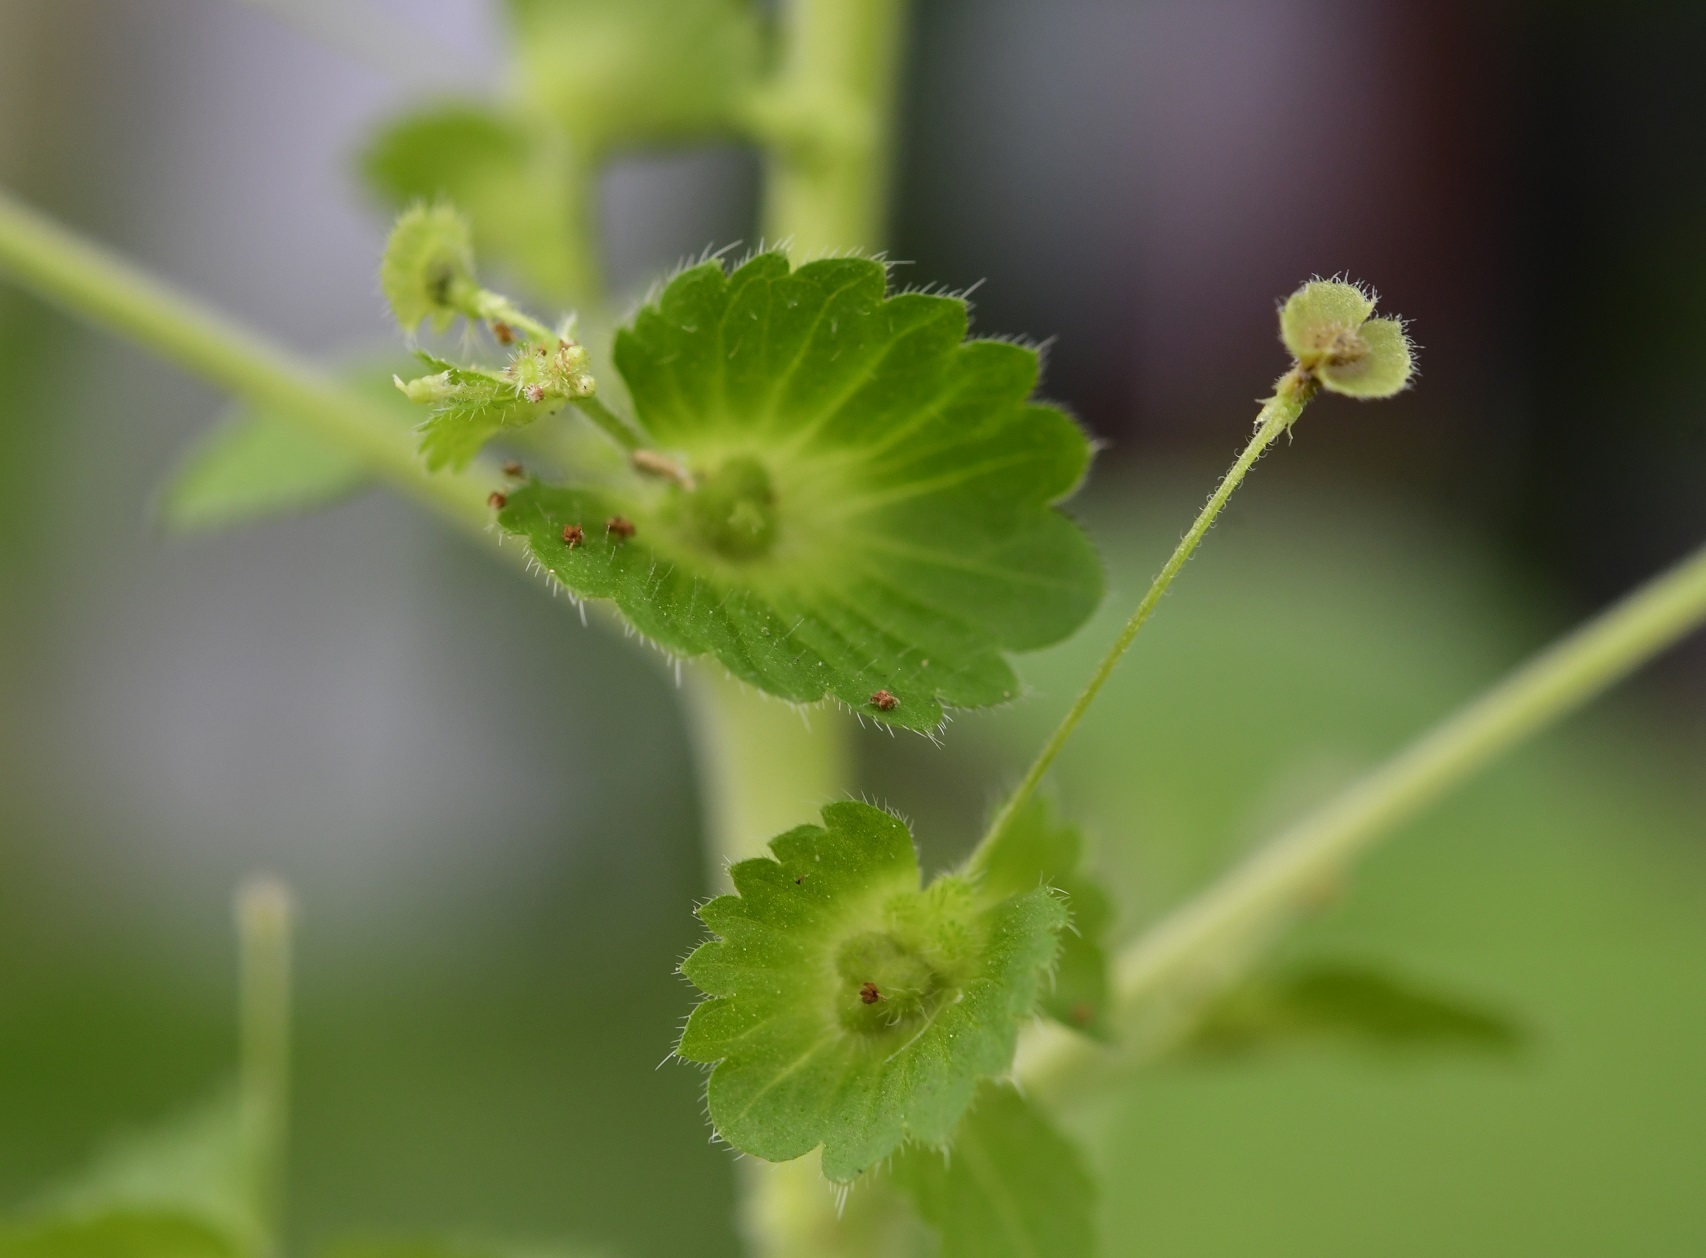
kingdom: Plantae
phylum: Tracheophyta
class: Magnoliopsida
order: Malpighiales
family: Euphorbiaceae
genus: Acalypha
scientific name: Acalypha mexicana
